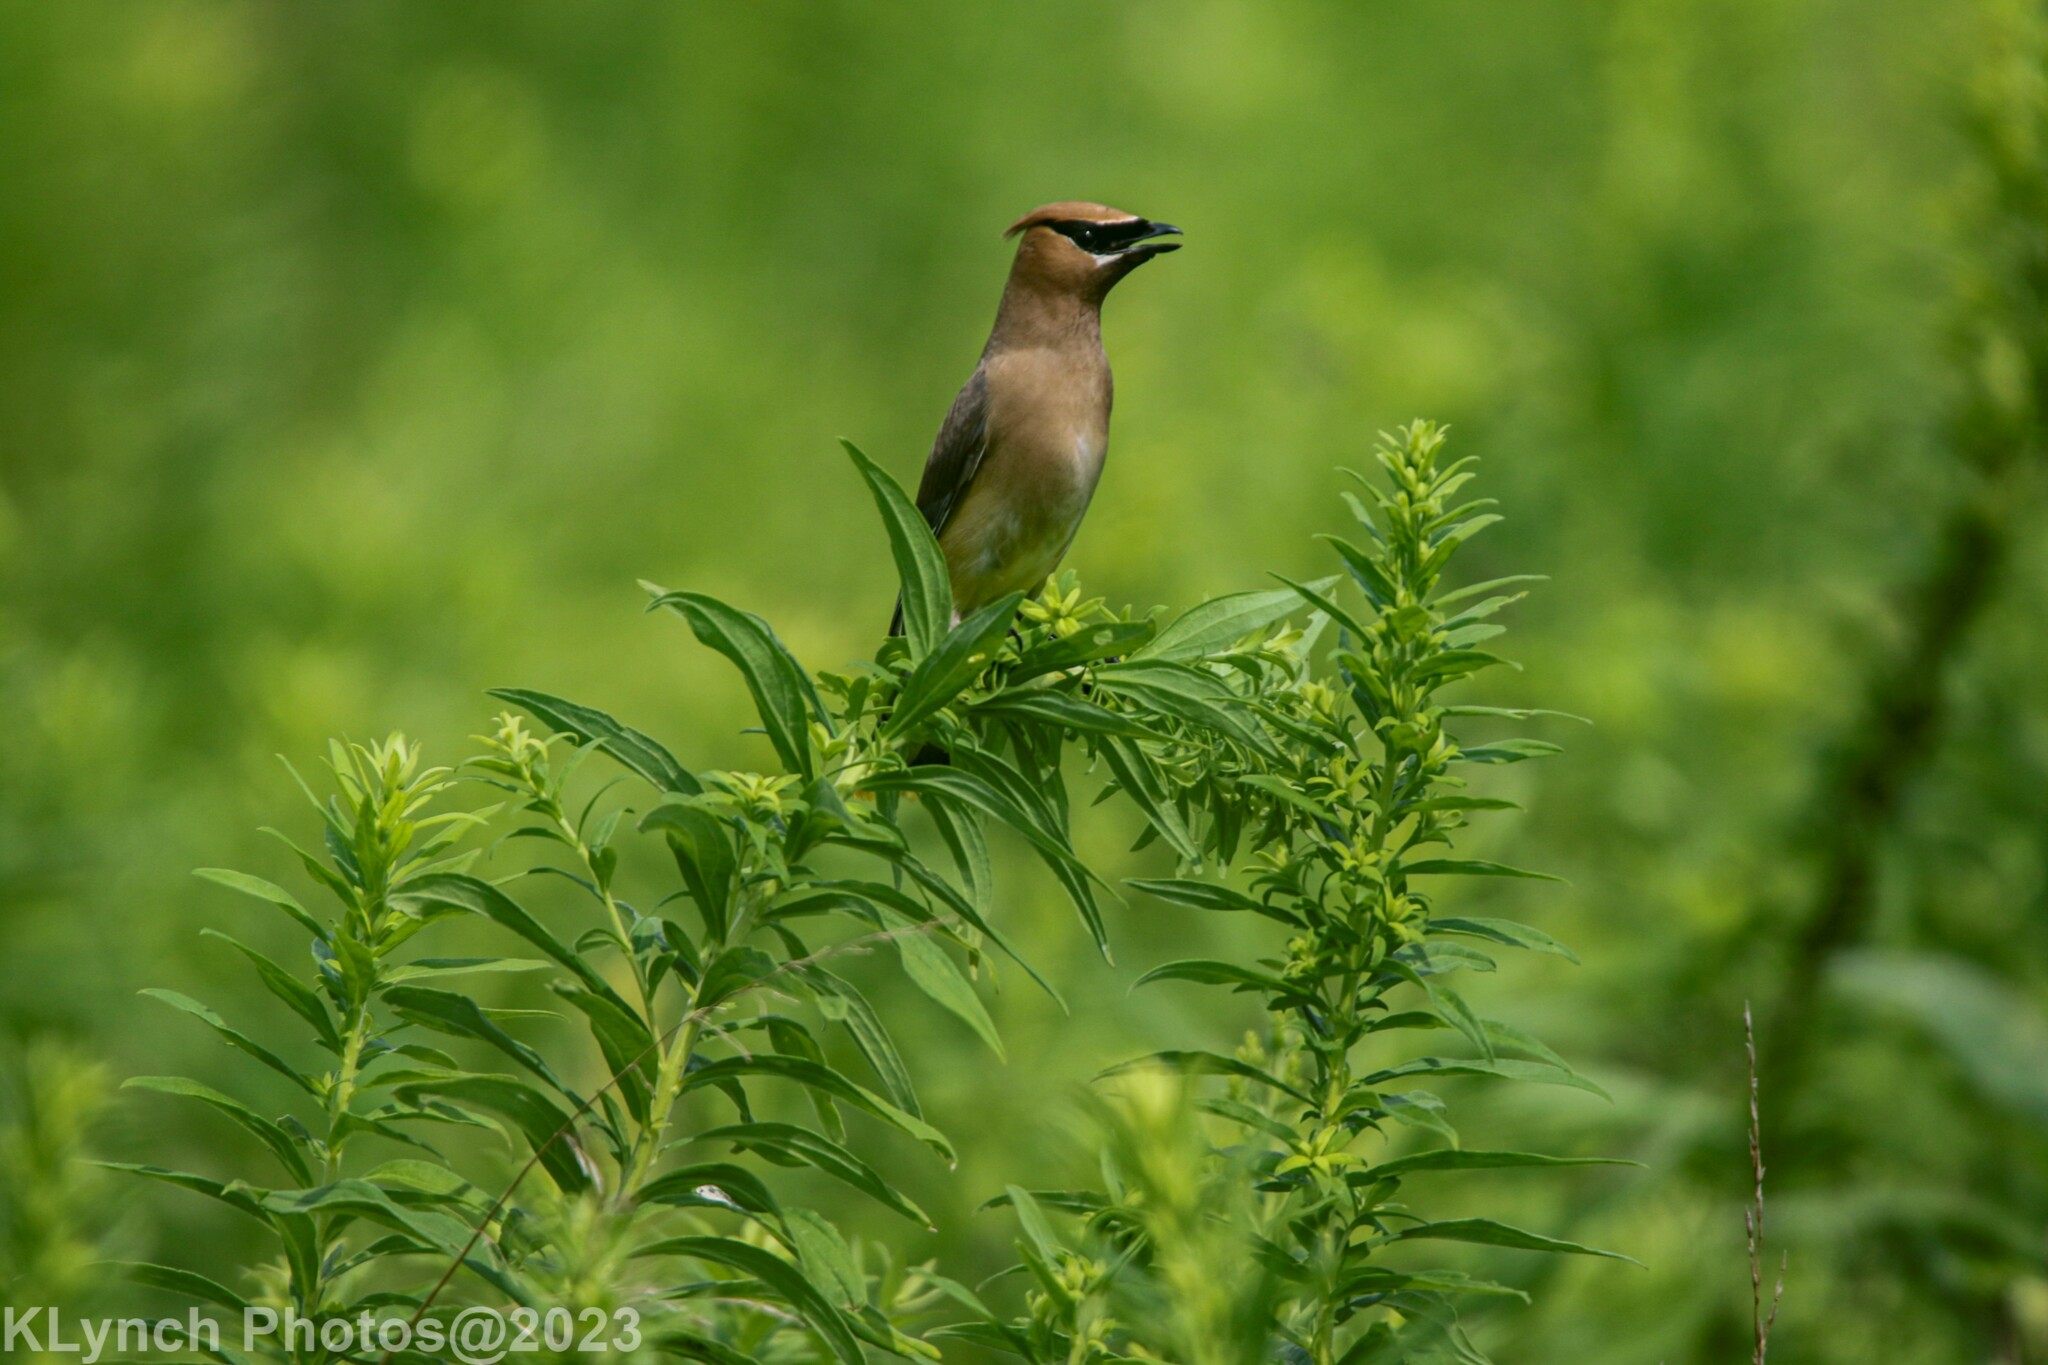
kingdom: Animalia
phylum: Chordata
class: Aves
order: Passeriformes
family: Bombycillidae
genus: Bombycilla
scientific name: Bombycilla cedrorum
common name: Cedar waxwing
